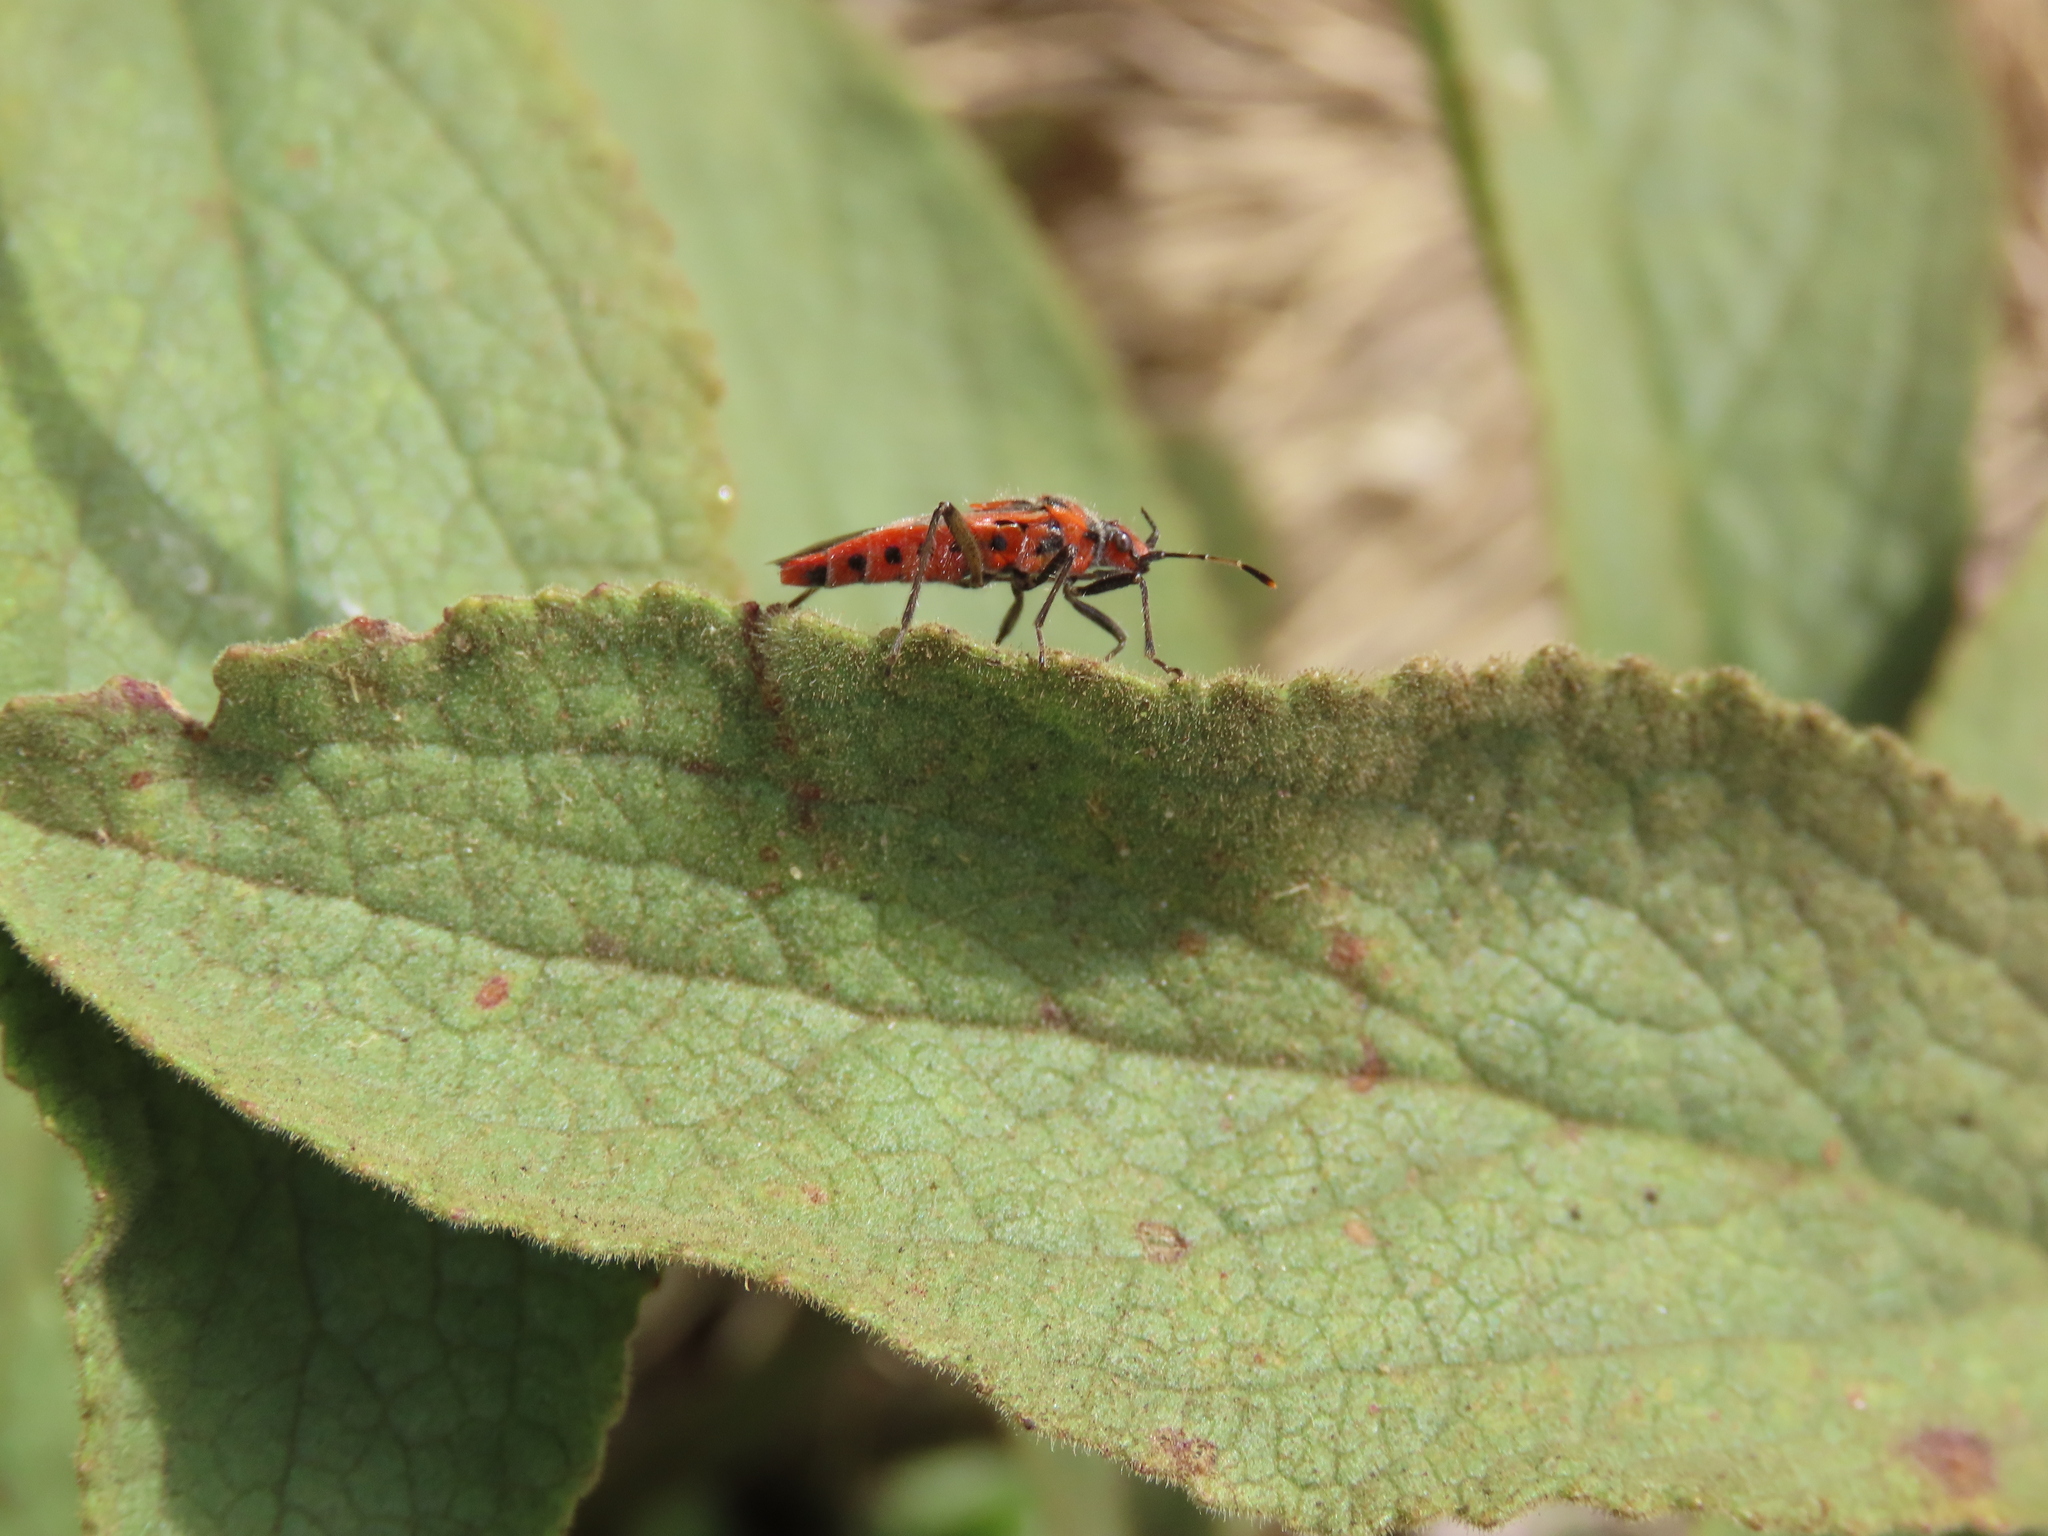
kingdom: Animalia
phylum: Arthropoda
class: Insecta
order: Hemiptera
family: Rhopalidae
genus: Corizus
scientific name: Corizus hyoscyami
